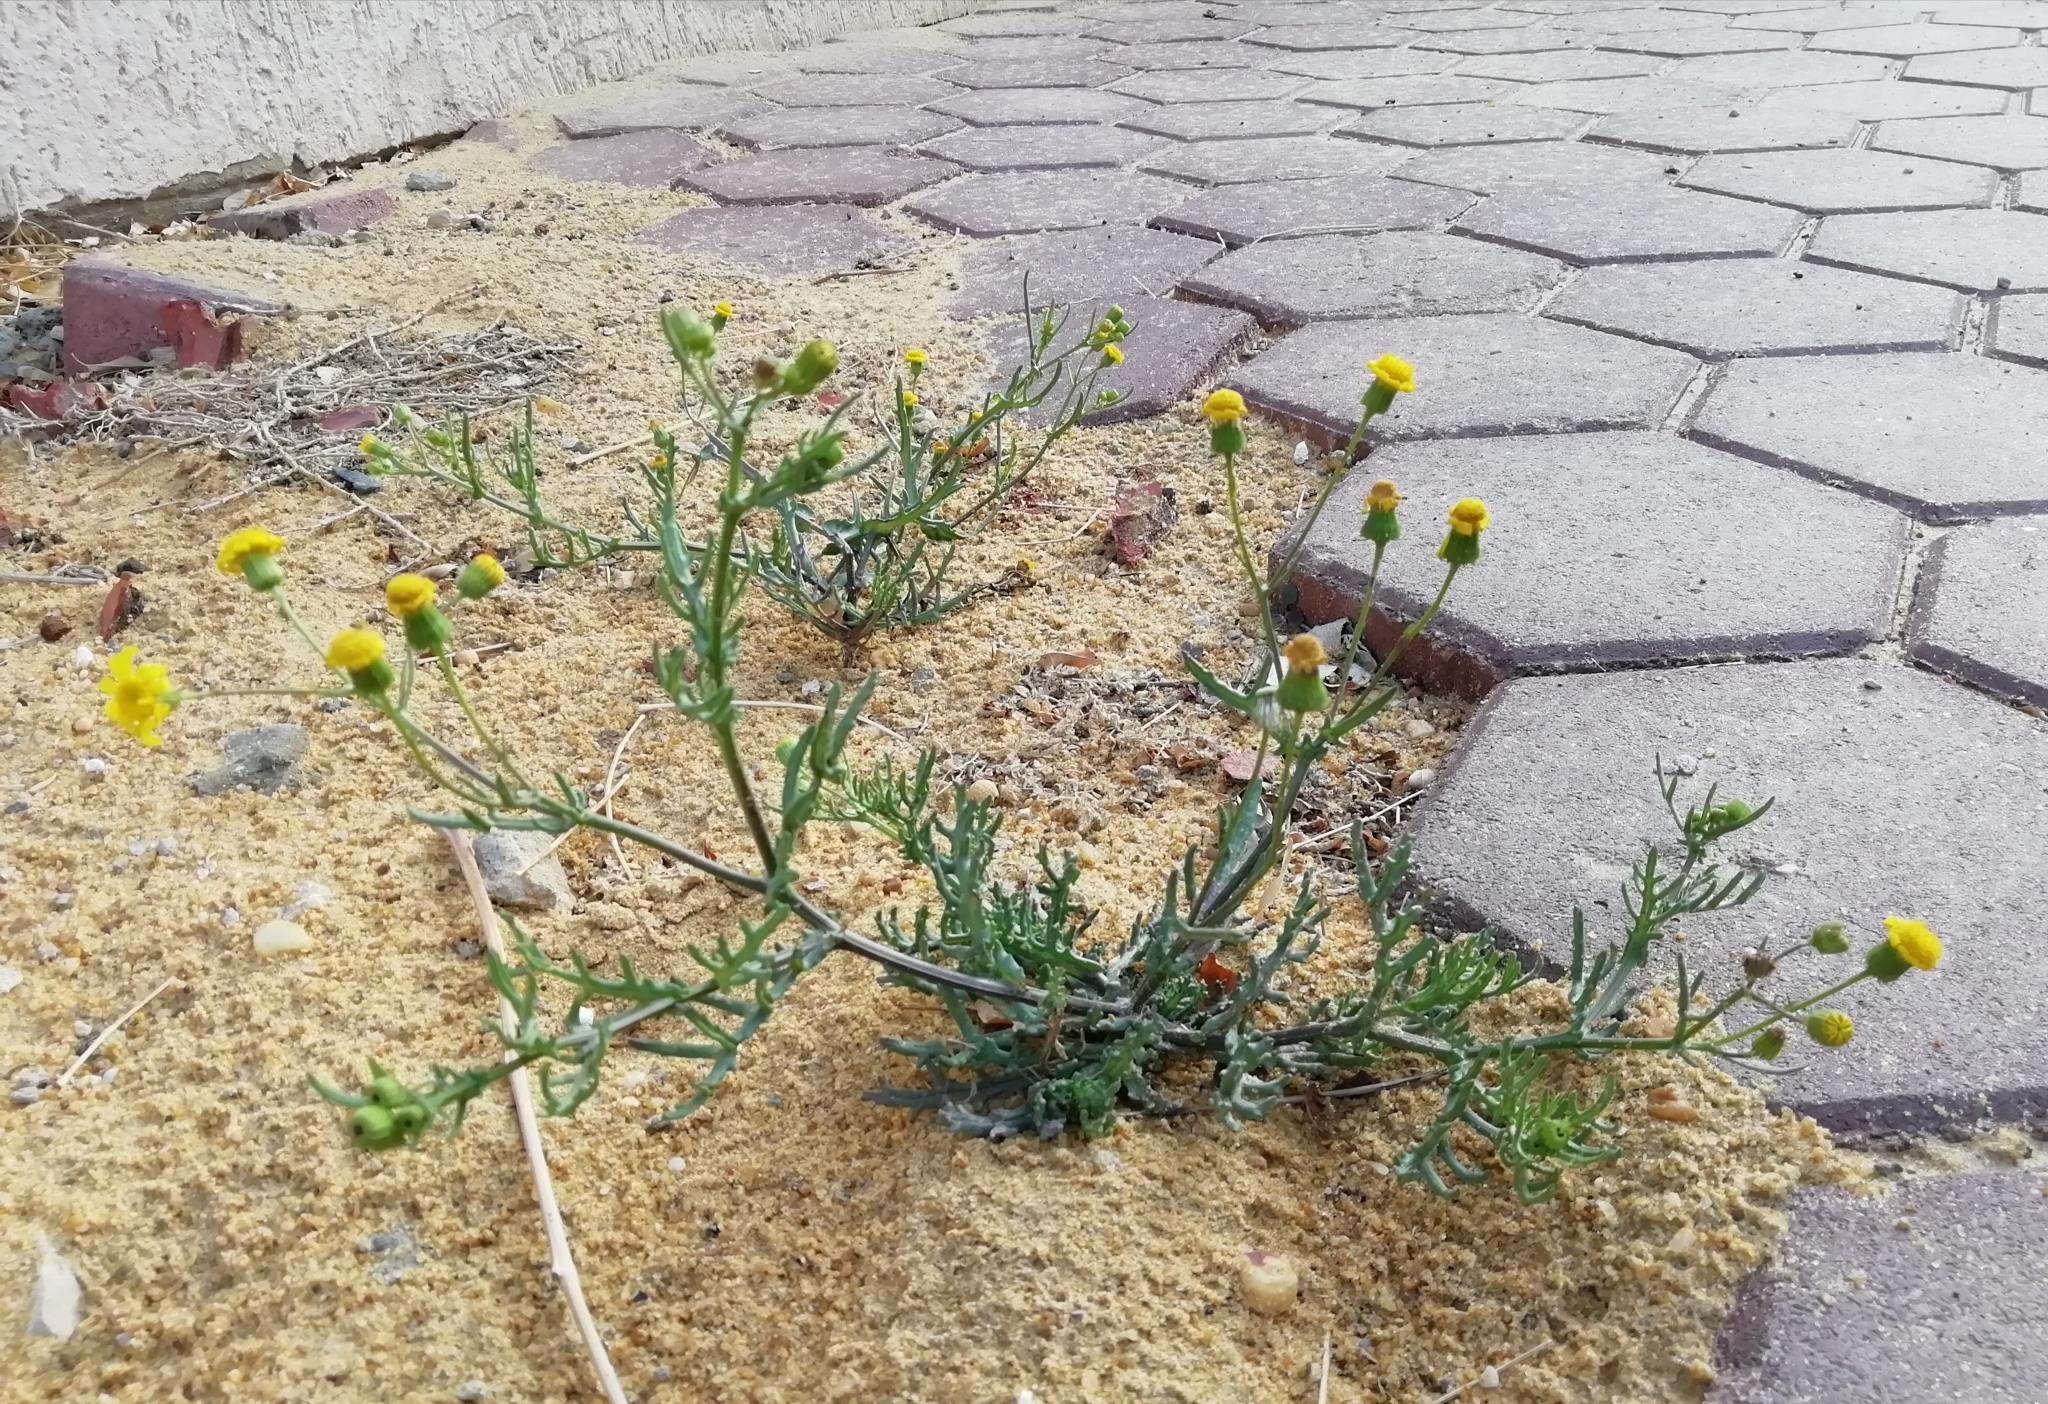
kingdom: Plantae
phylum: Tracheophyta
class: Magnoliopsida
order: Asterales
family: Asteraceae
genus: Senecio
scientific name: Senecio glaucus
